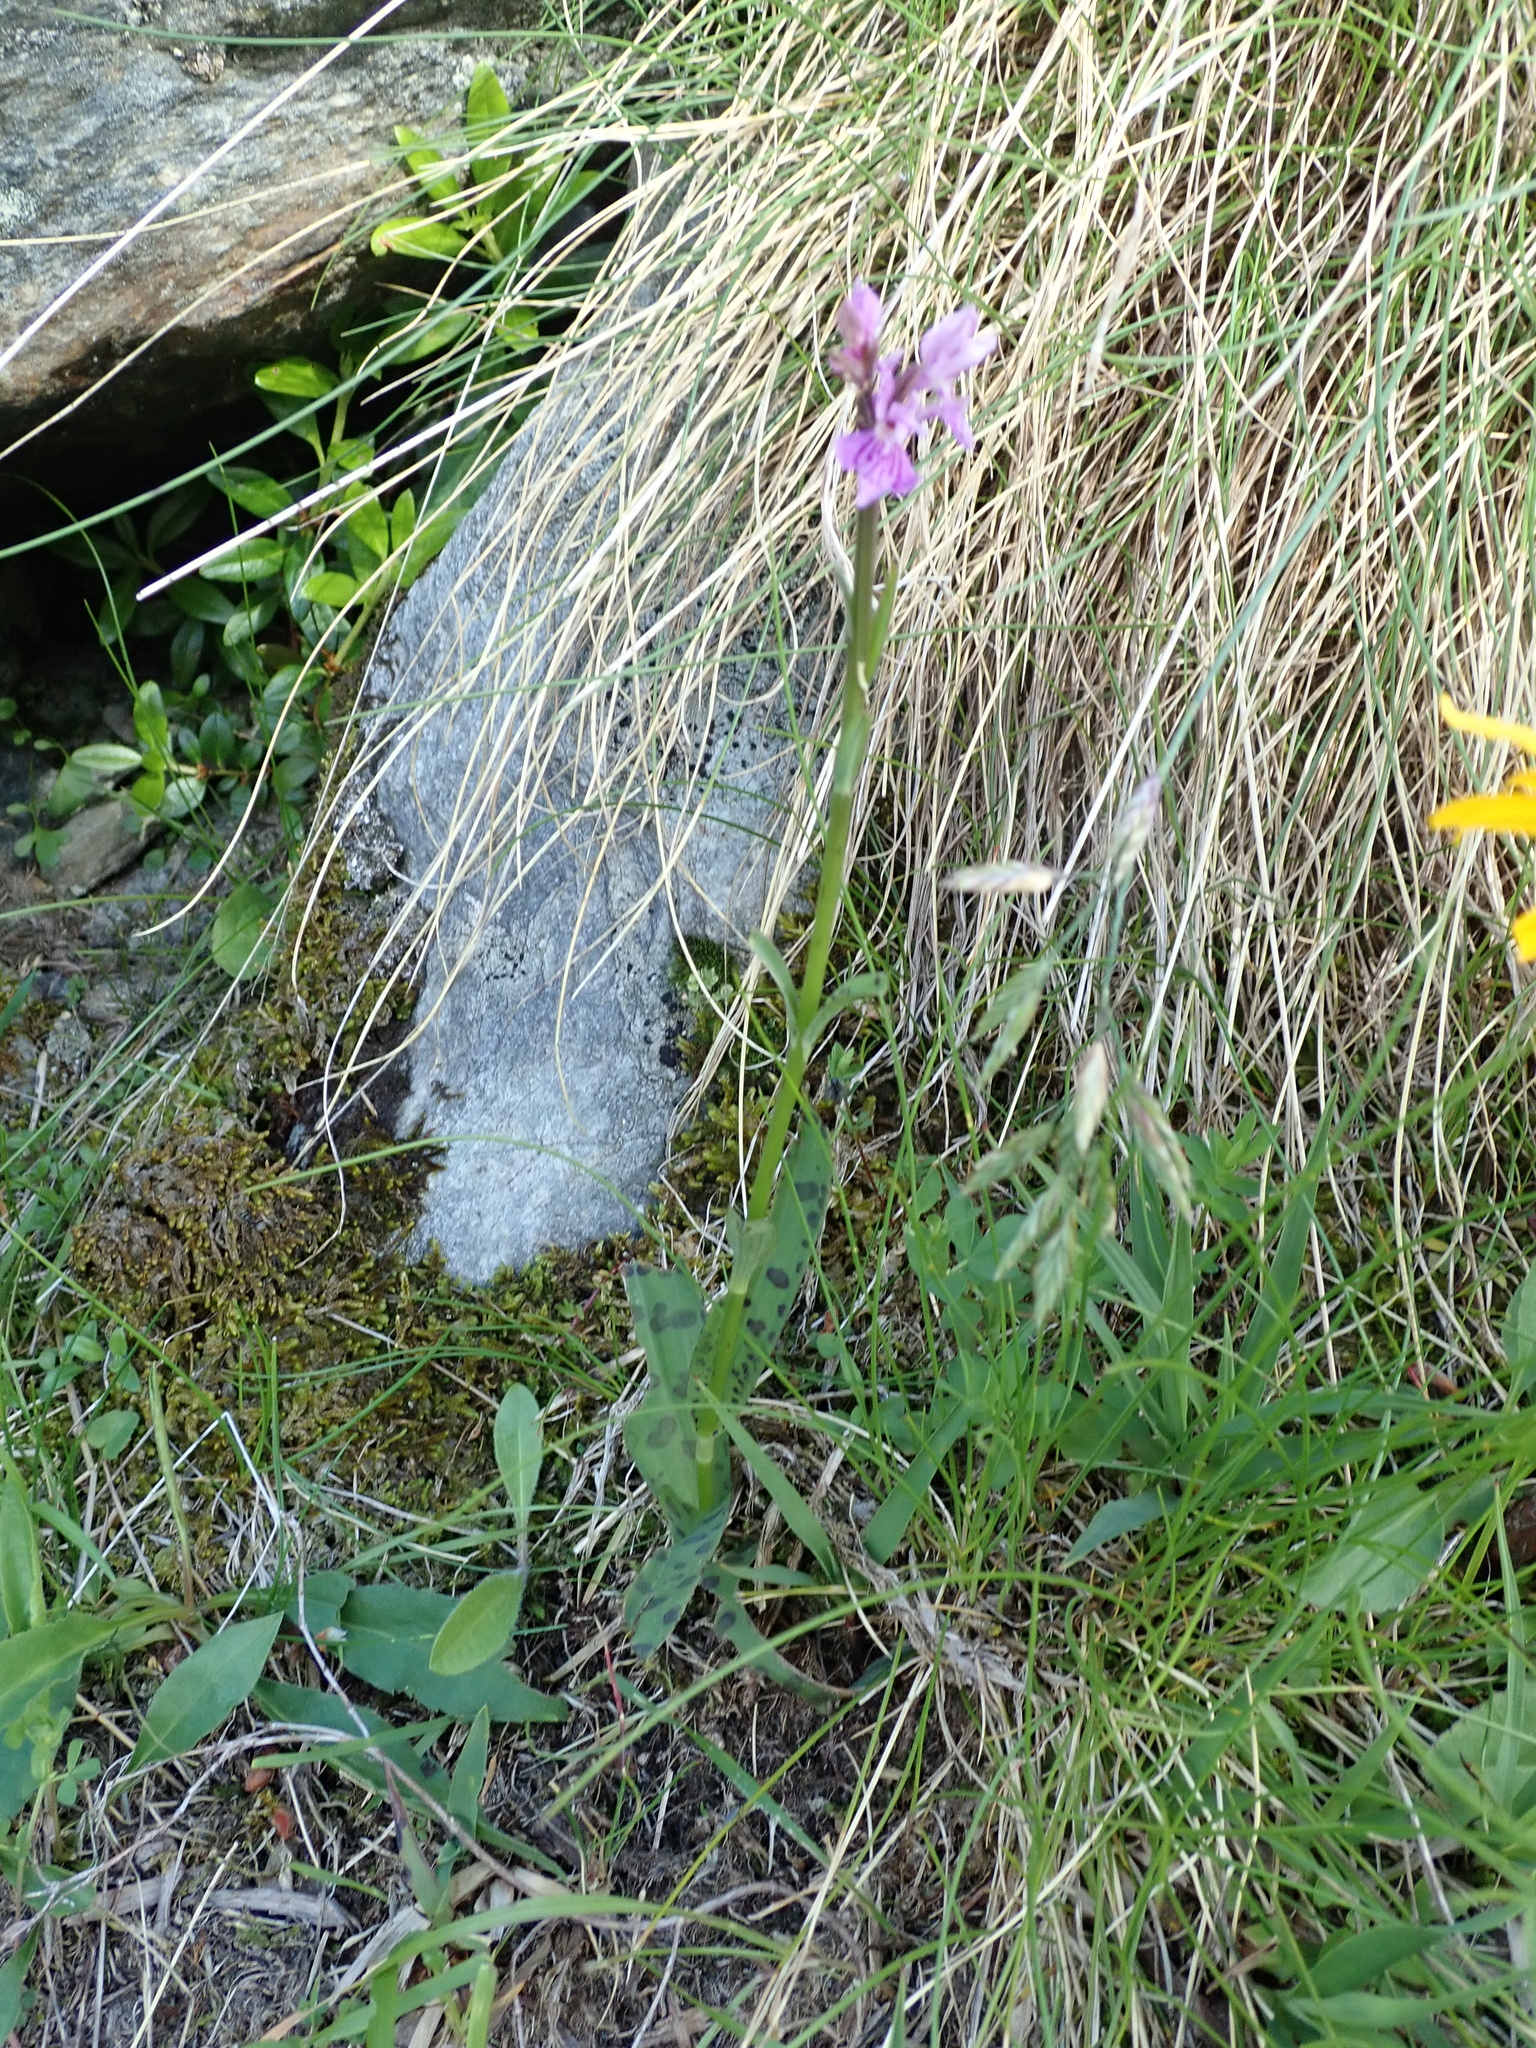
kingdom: Plantae
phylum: Tracheophyta
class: Liliopsida
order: Asparagales
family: Orchidaceae
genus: Dactylorhiza
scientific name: Dactylorhiza maculata
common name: Heath spotted-orchid
